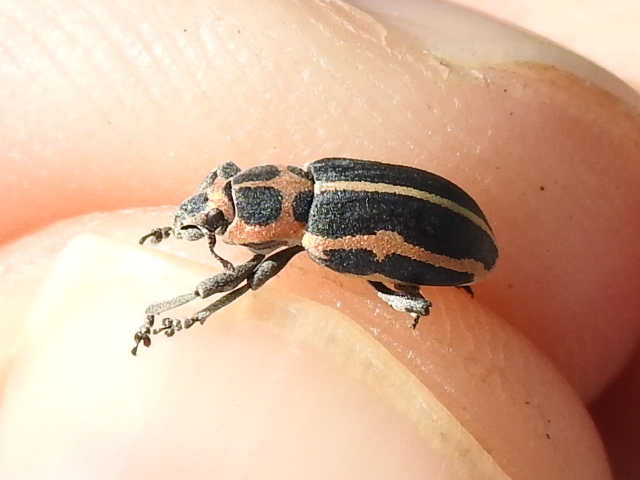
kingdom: Animalia
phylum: Arthropoda
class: Insecta
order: Coleoptera
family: Curculionidae
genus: Eudiagogus
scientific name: Eudiagogus pulcher
